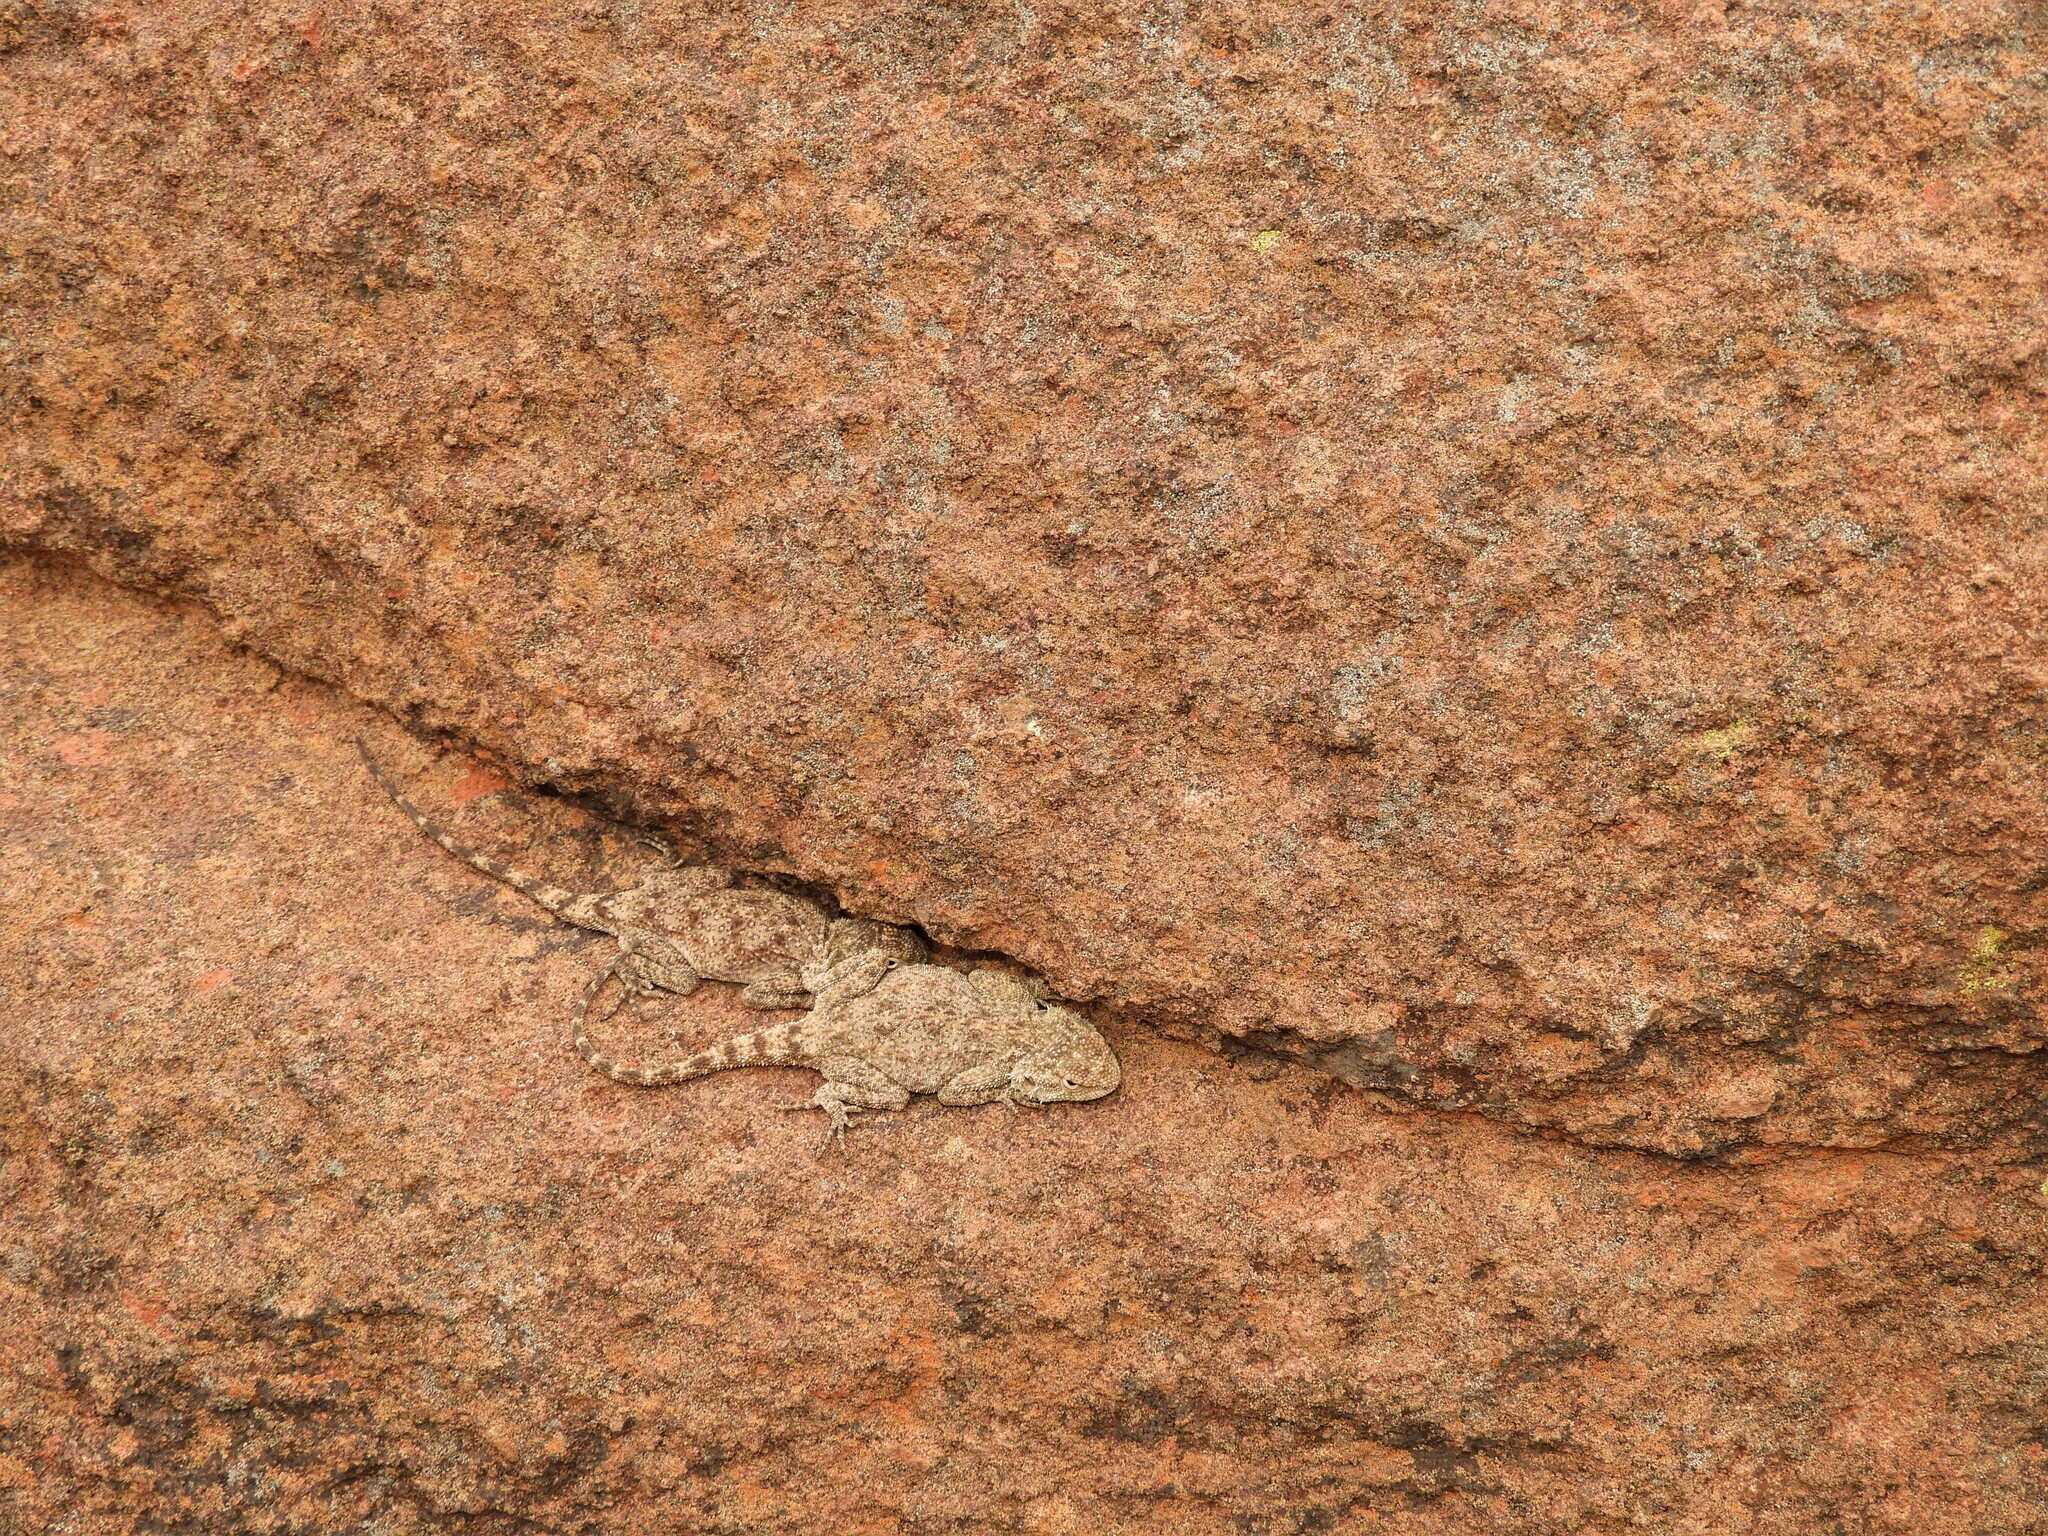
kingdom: Animalia
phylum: Chordata
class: Squamata
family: Agamidae
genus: Agama
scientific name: Agama atra
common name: Southern african rock agama
